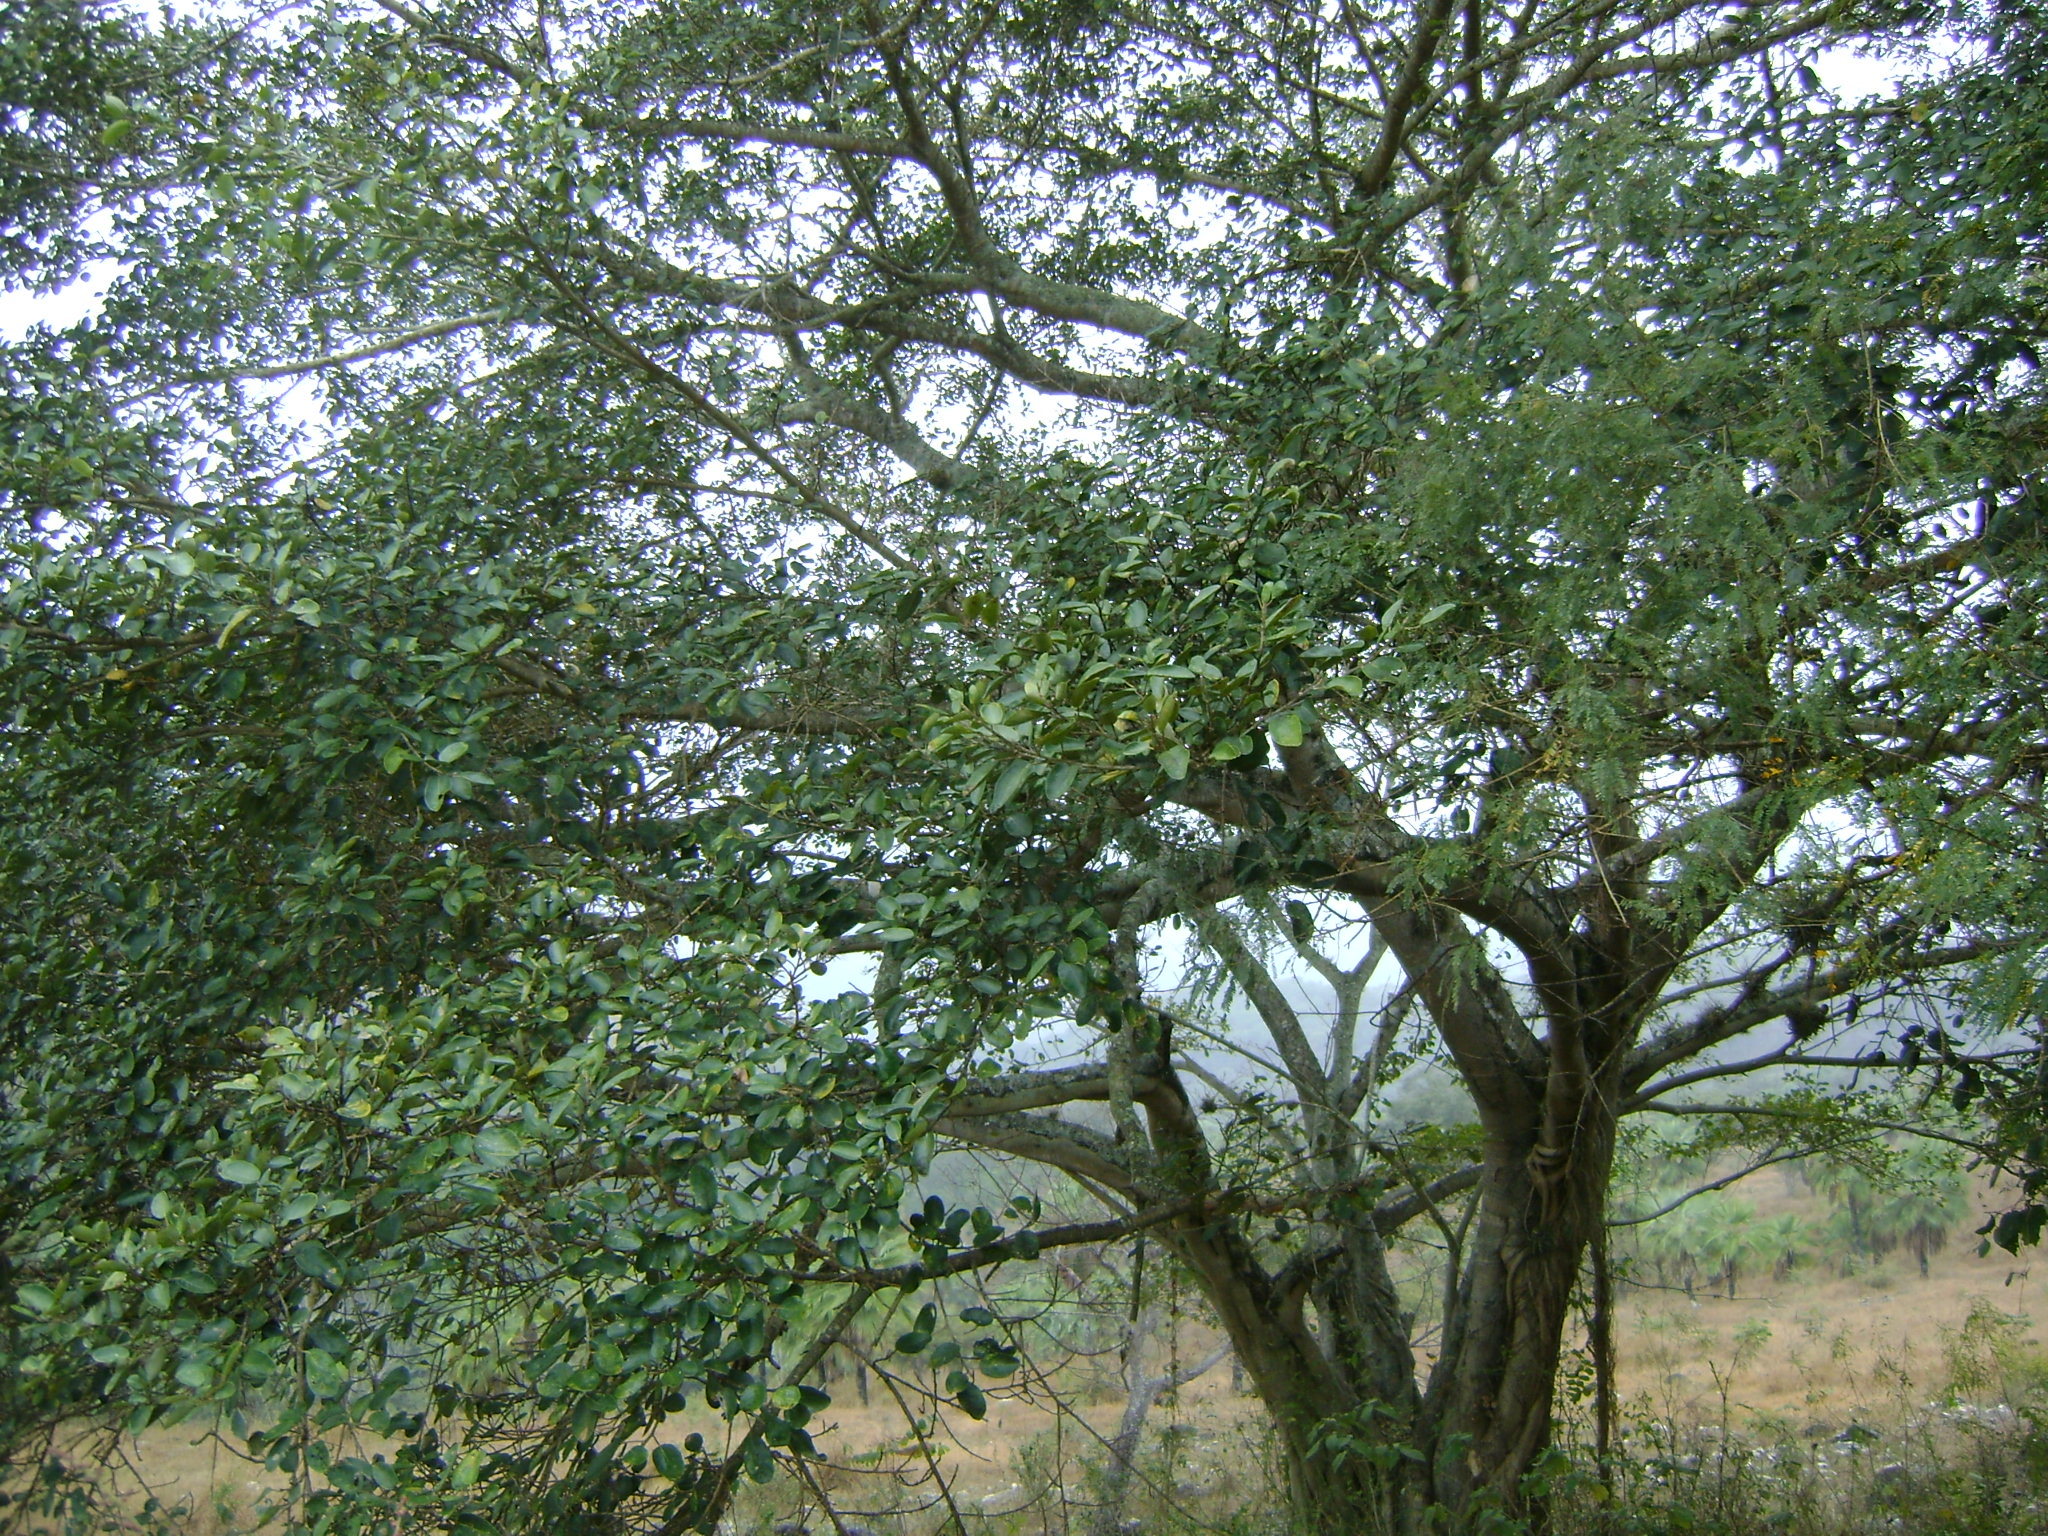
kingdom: Plantae
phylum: Tracheophyta
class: Magnoliopsida
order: Rosales
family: Moraceae
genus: Ficus
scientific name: Ficus cotinifolia
